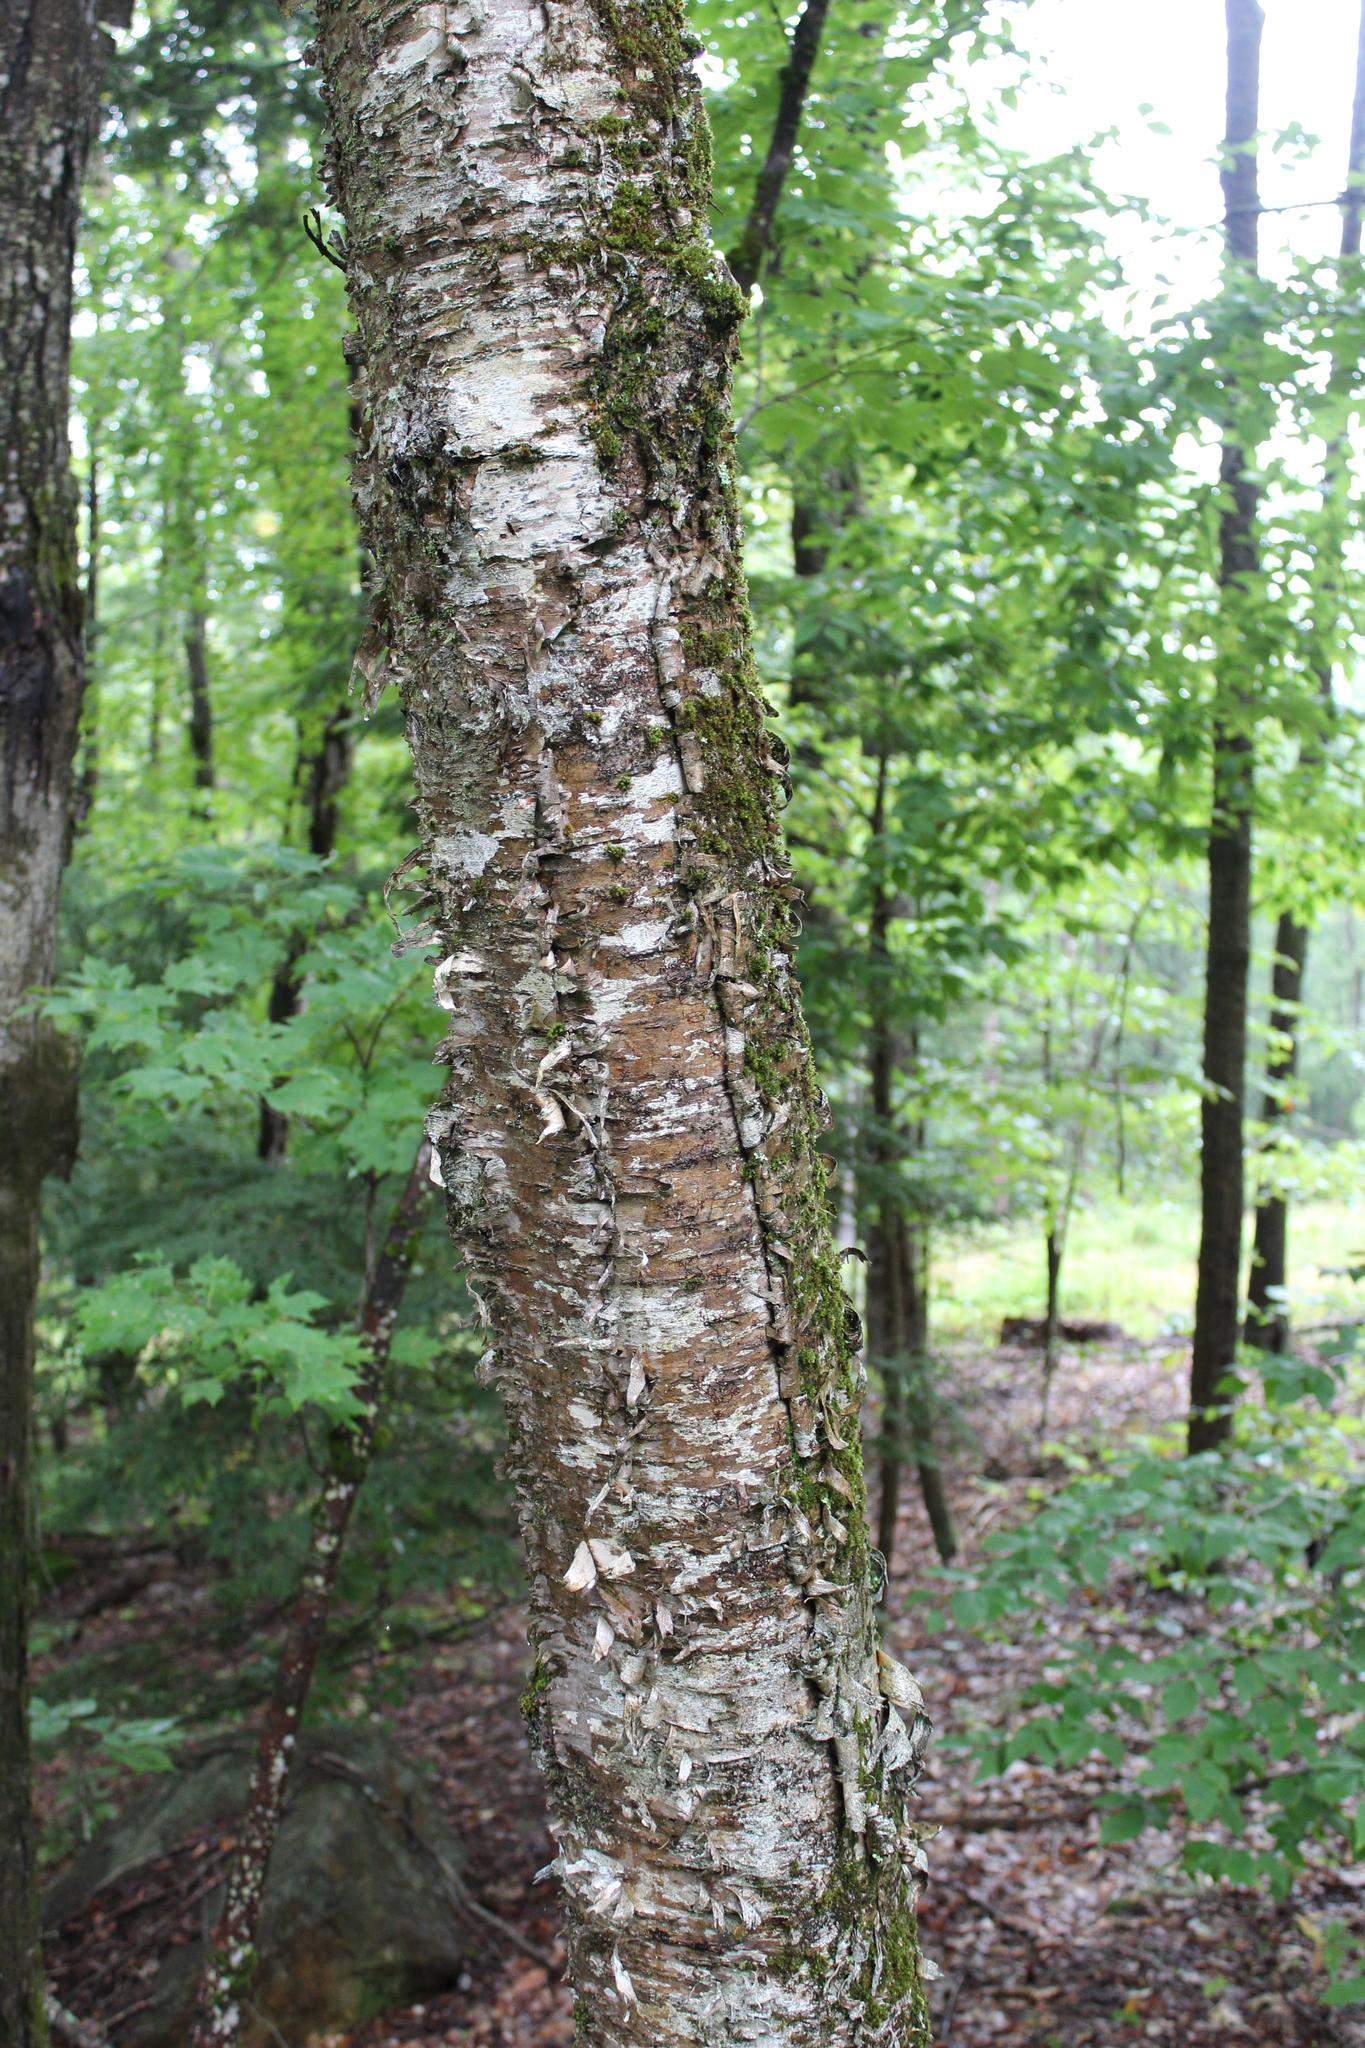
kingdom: Plantae
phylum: Tracheophyta
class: Magnoliopsida
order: Fagales
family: Betulaceae
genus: Betula
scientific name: Betula alleghaniensis
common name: Yellow birch
